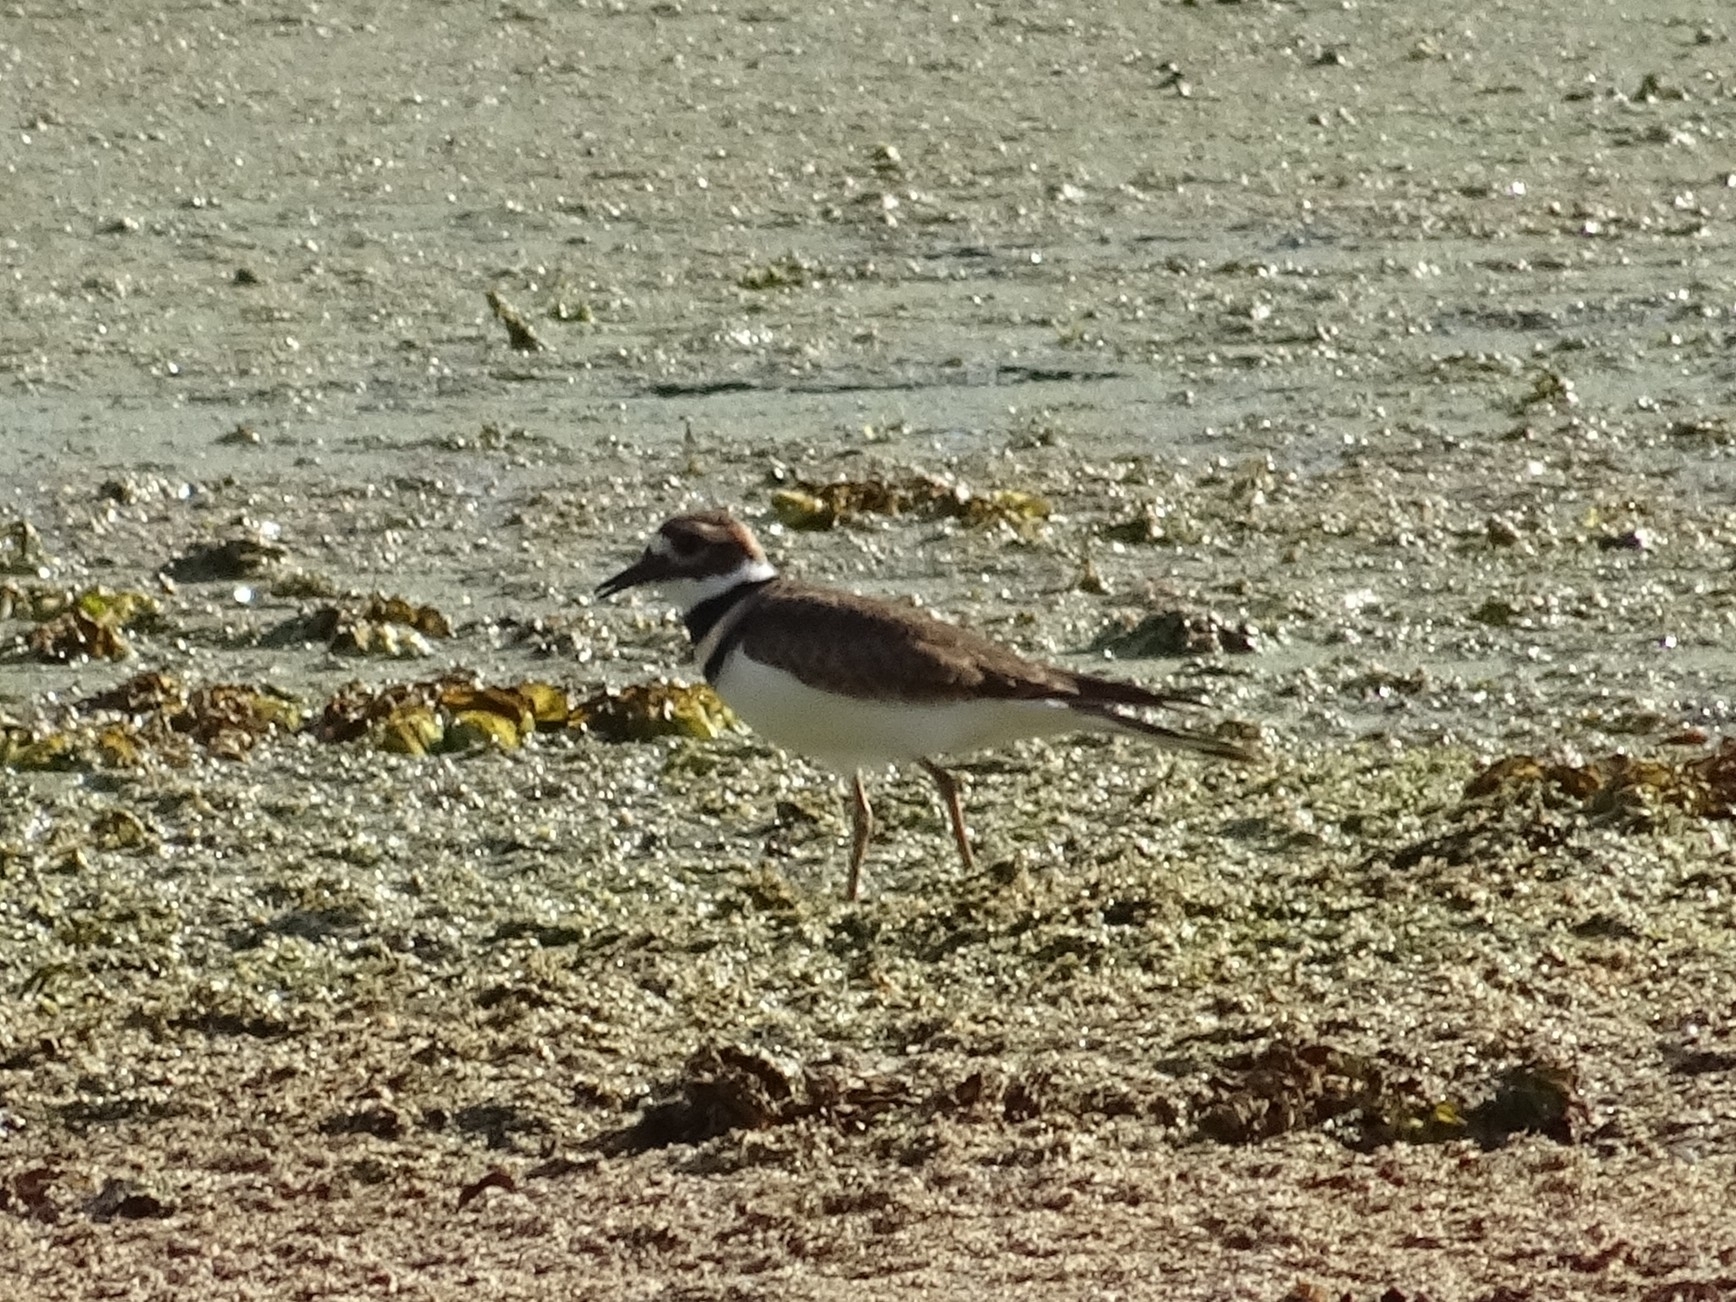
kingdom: Animalia
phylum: Chordata
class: Aves
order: Charadriiformes
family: Charadriidae
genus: Charadrius
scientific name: Charadrius vociferus
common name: Killdeer
